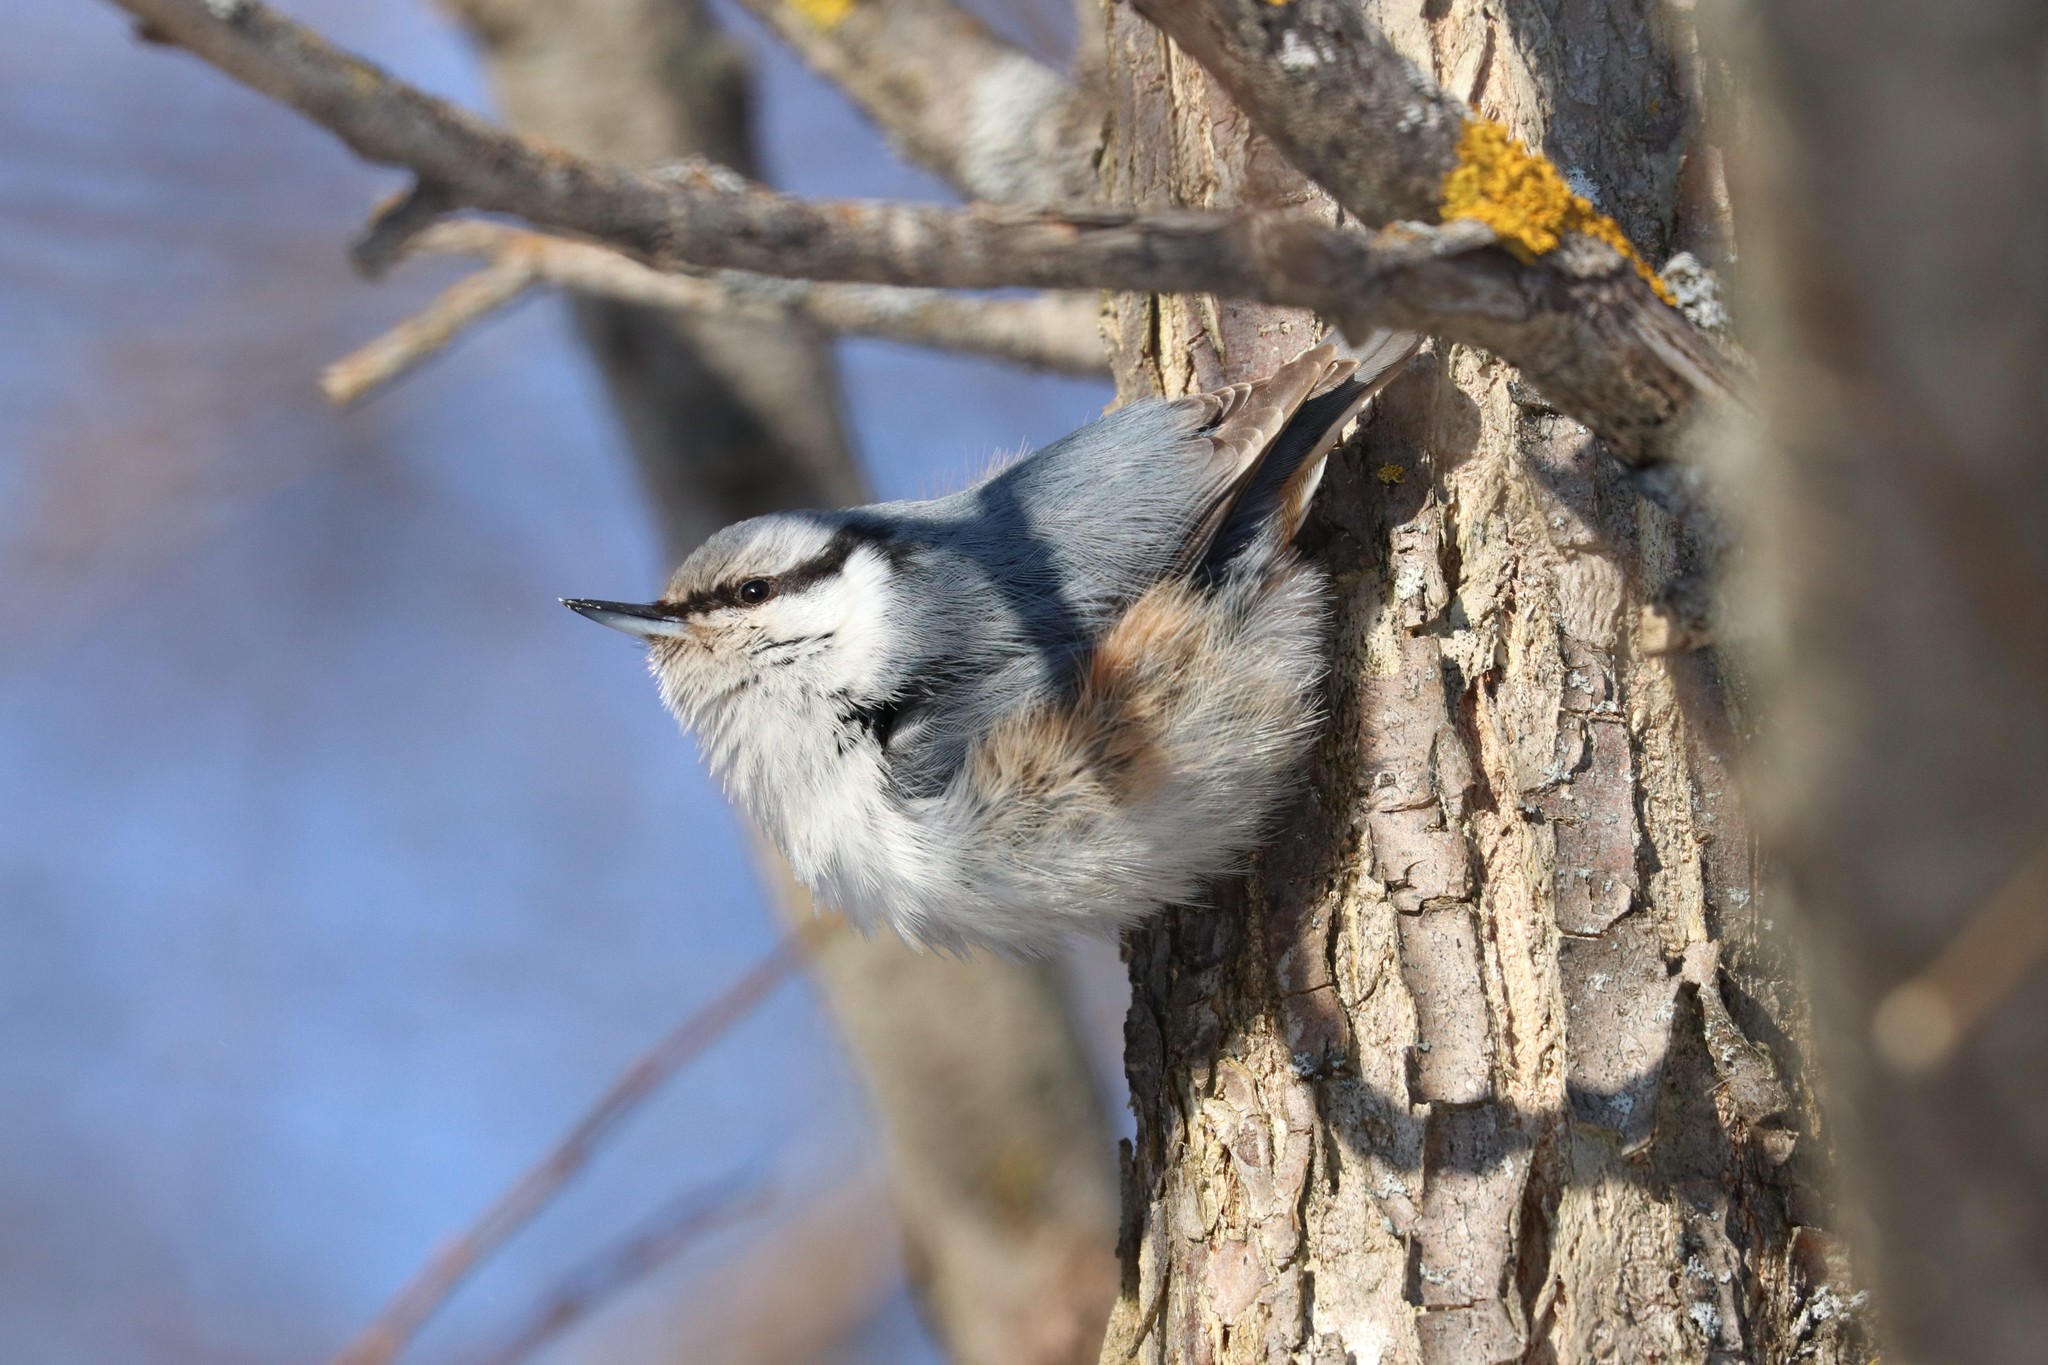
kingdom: Animalia
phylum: Chordata
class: Aves
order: Passeriformes
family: Sittidae
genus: Sitta
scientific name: Sitta europaea
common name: Eurasian nuthatch
